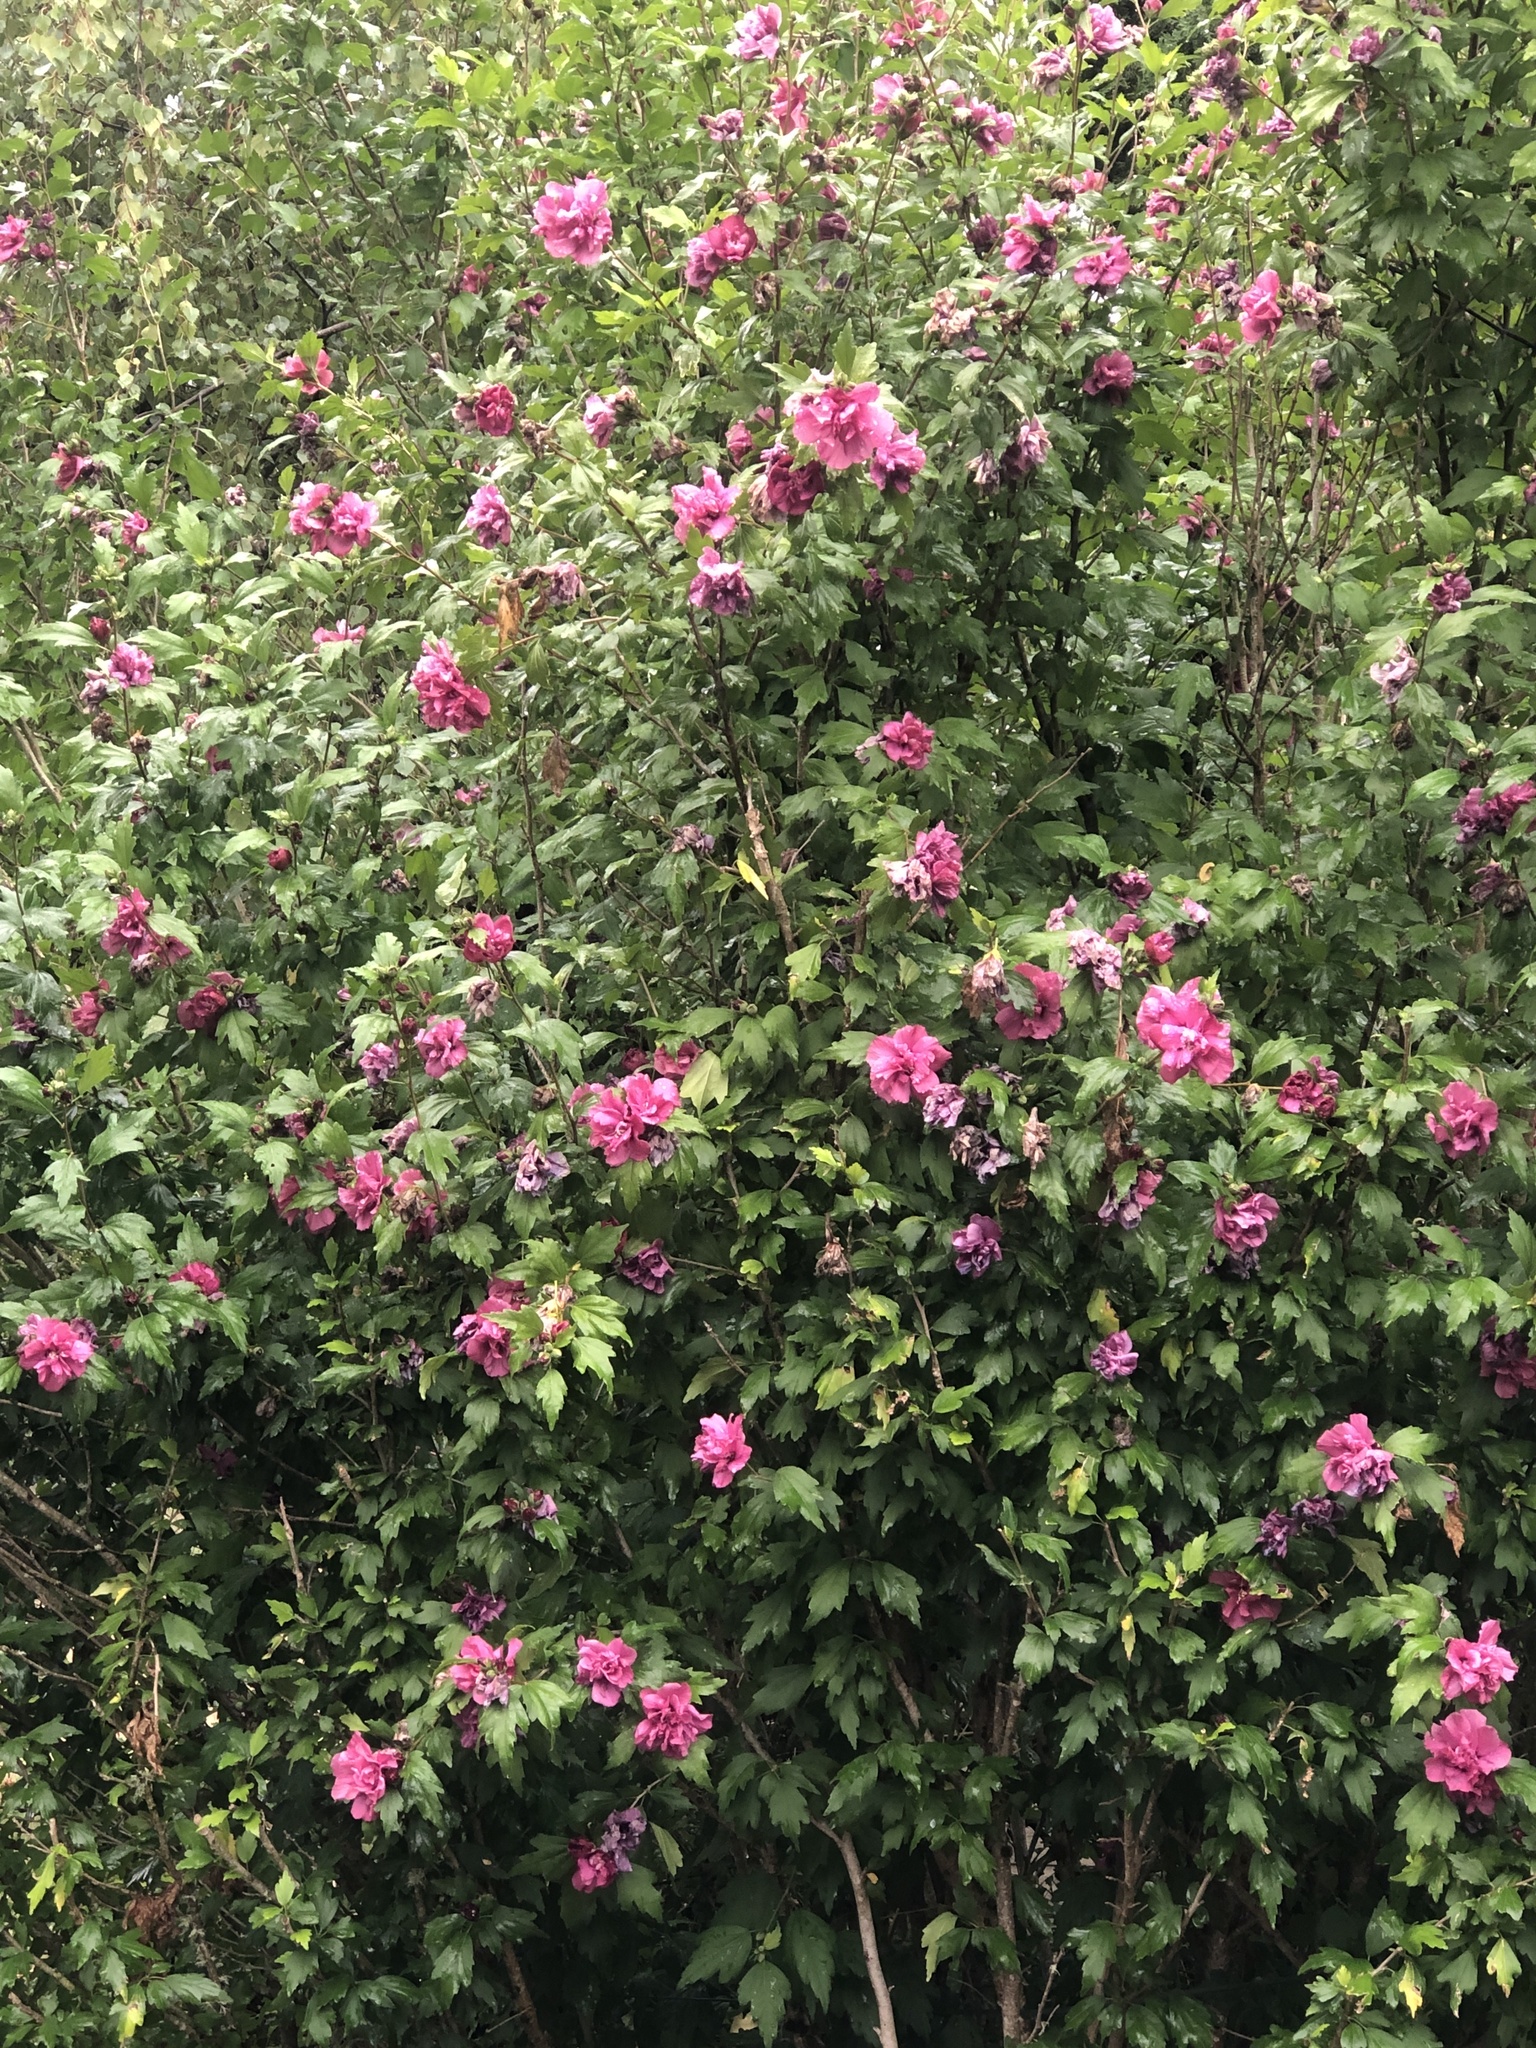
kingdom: Plantae
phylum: Tracheophyta
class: Magnoliopsida
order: Malvales
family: Malvaceae
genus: Hibiscus
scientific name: Hibiscus syriacus
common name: Syrian ketmia
